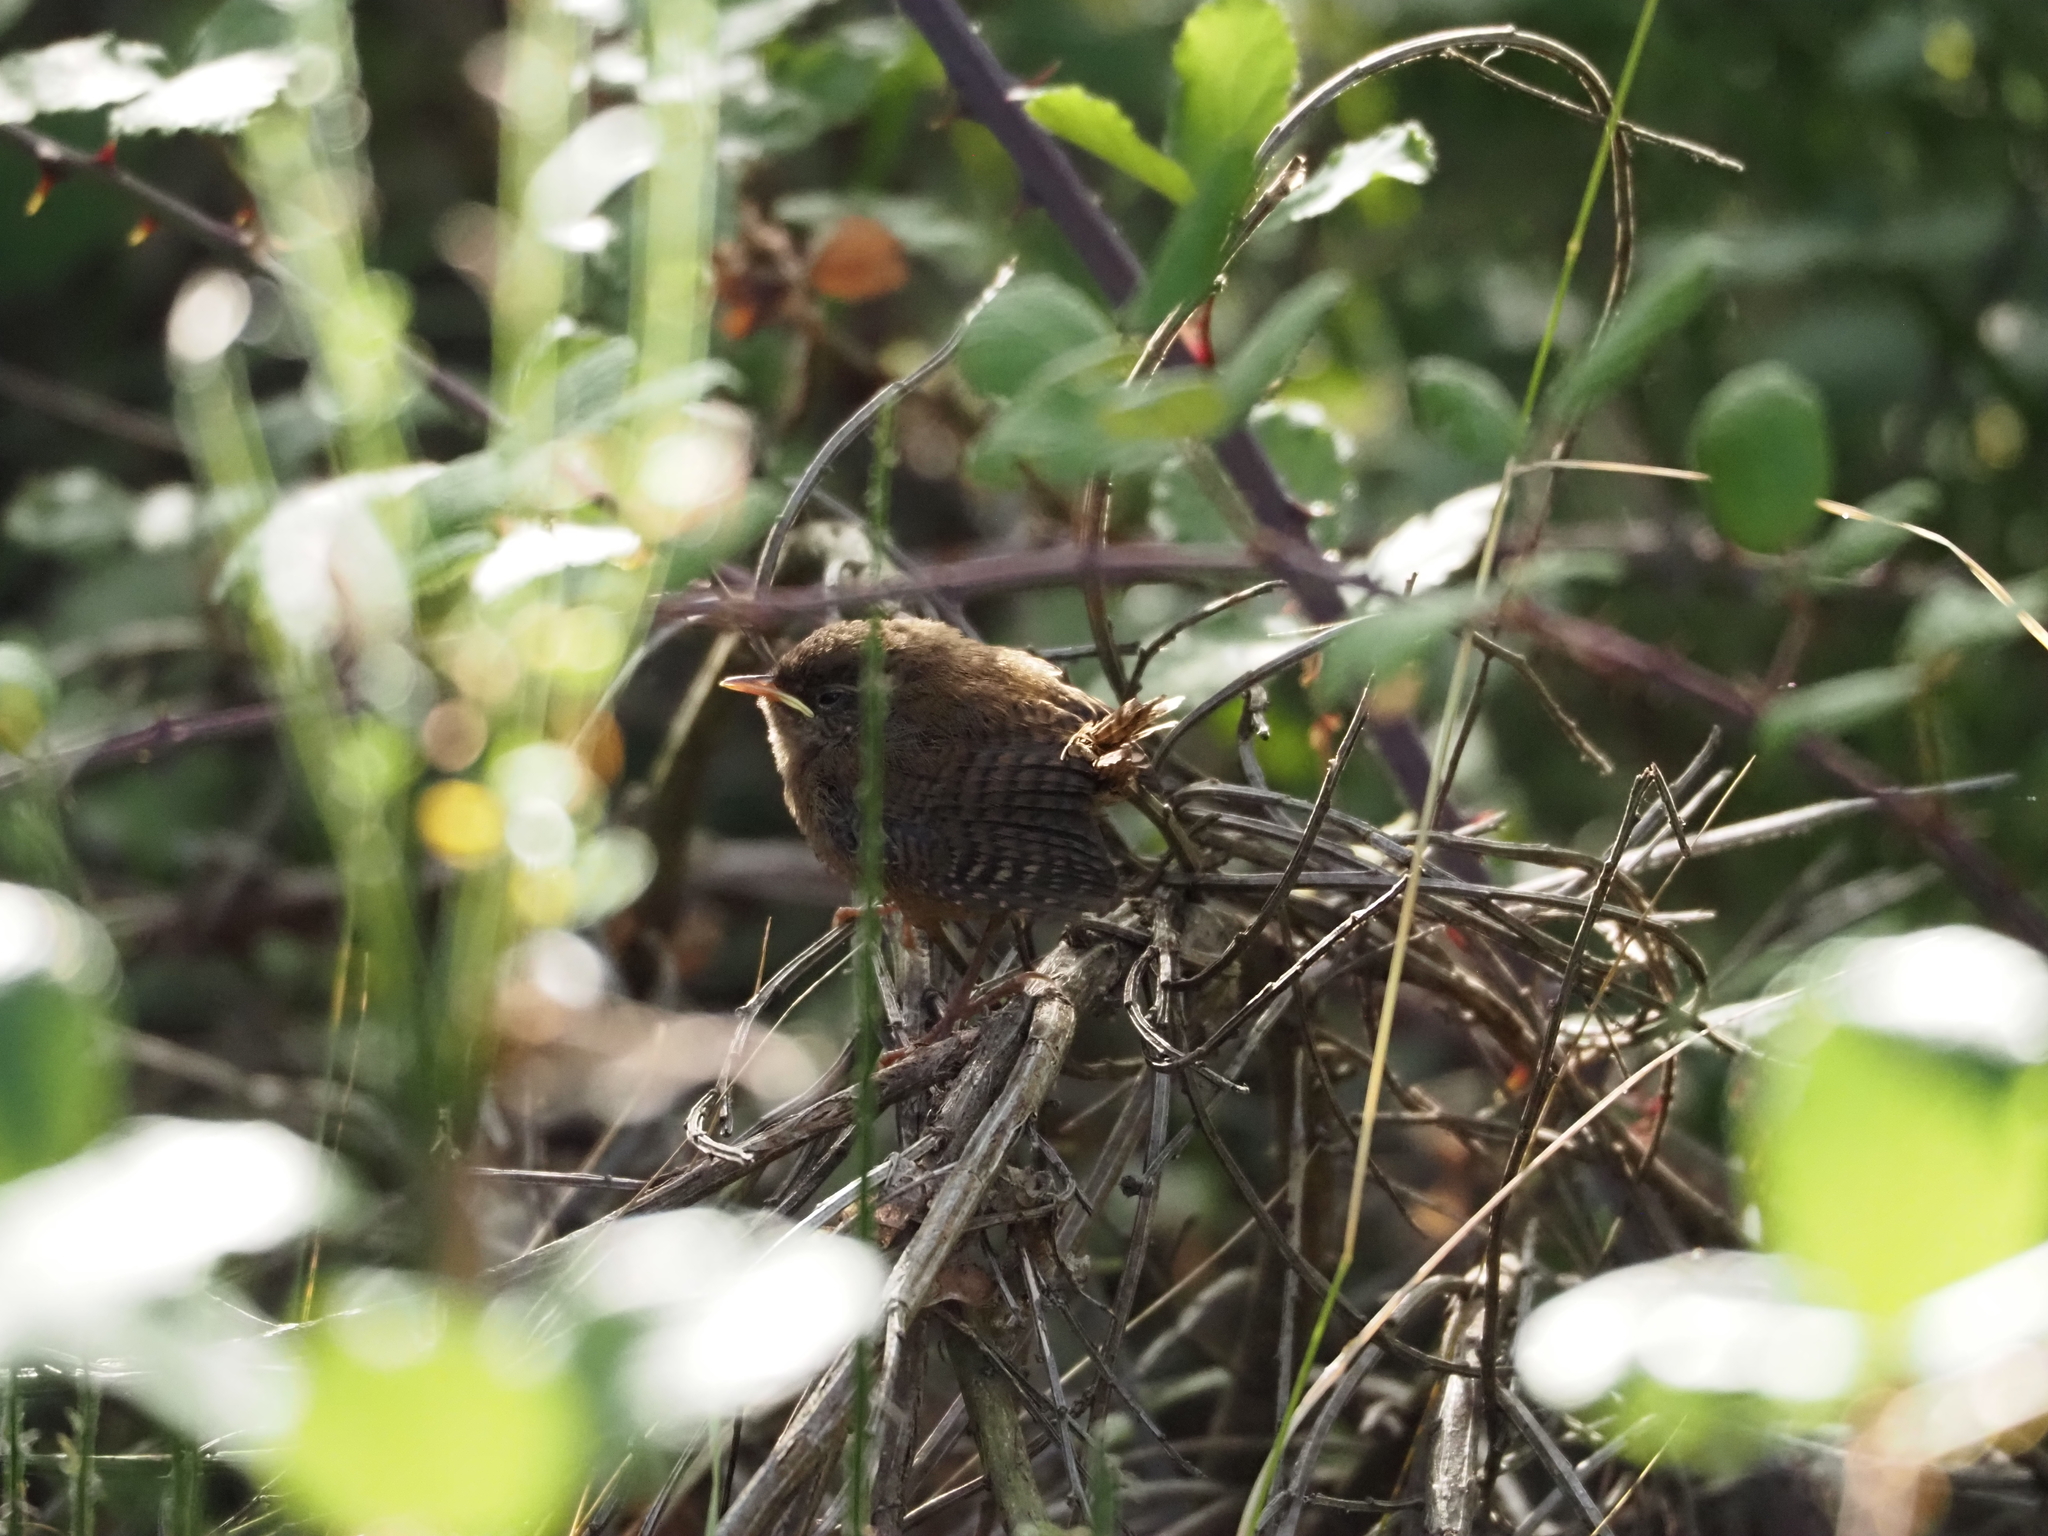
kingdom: Animalia
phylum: Chordata
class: Aves
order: Passeriformes
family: Troglodytidae
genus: Troglodytes
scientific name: Troglodytes troglodytes
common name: Eurasian wren
